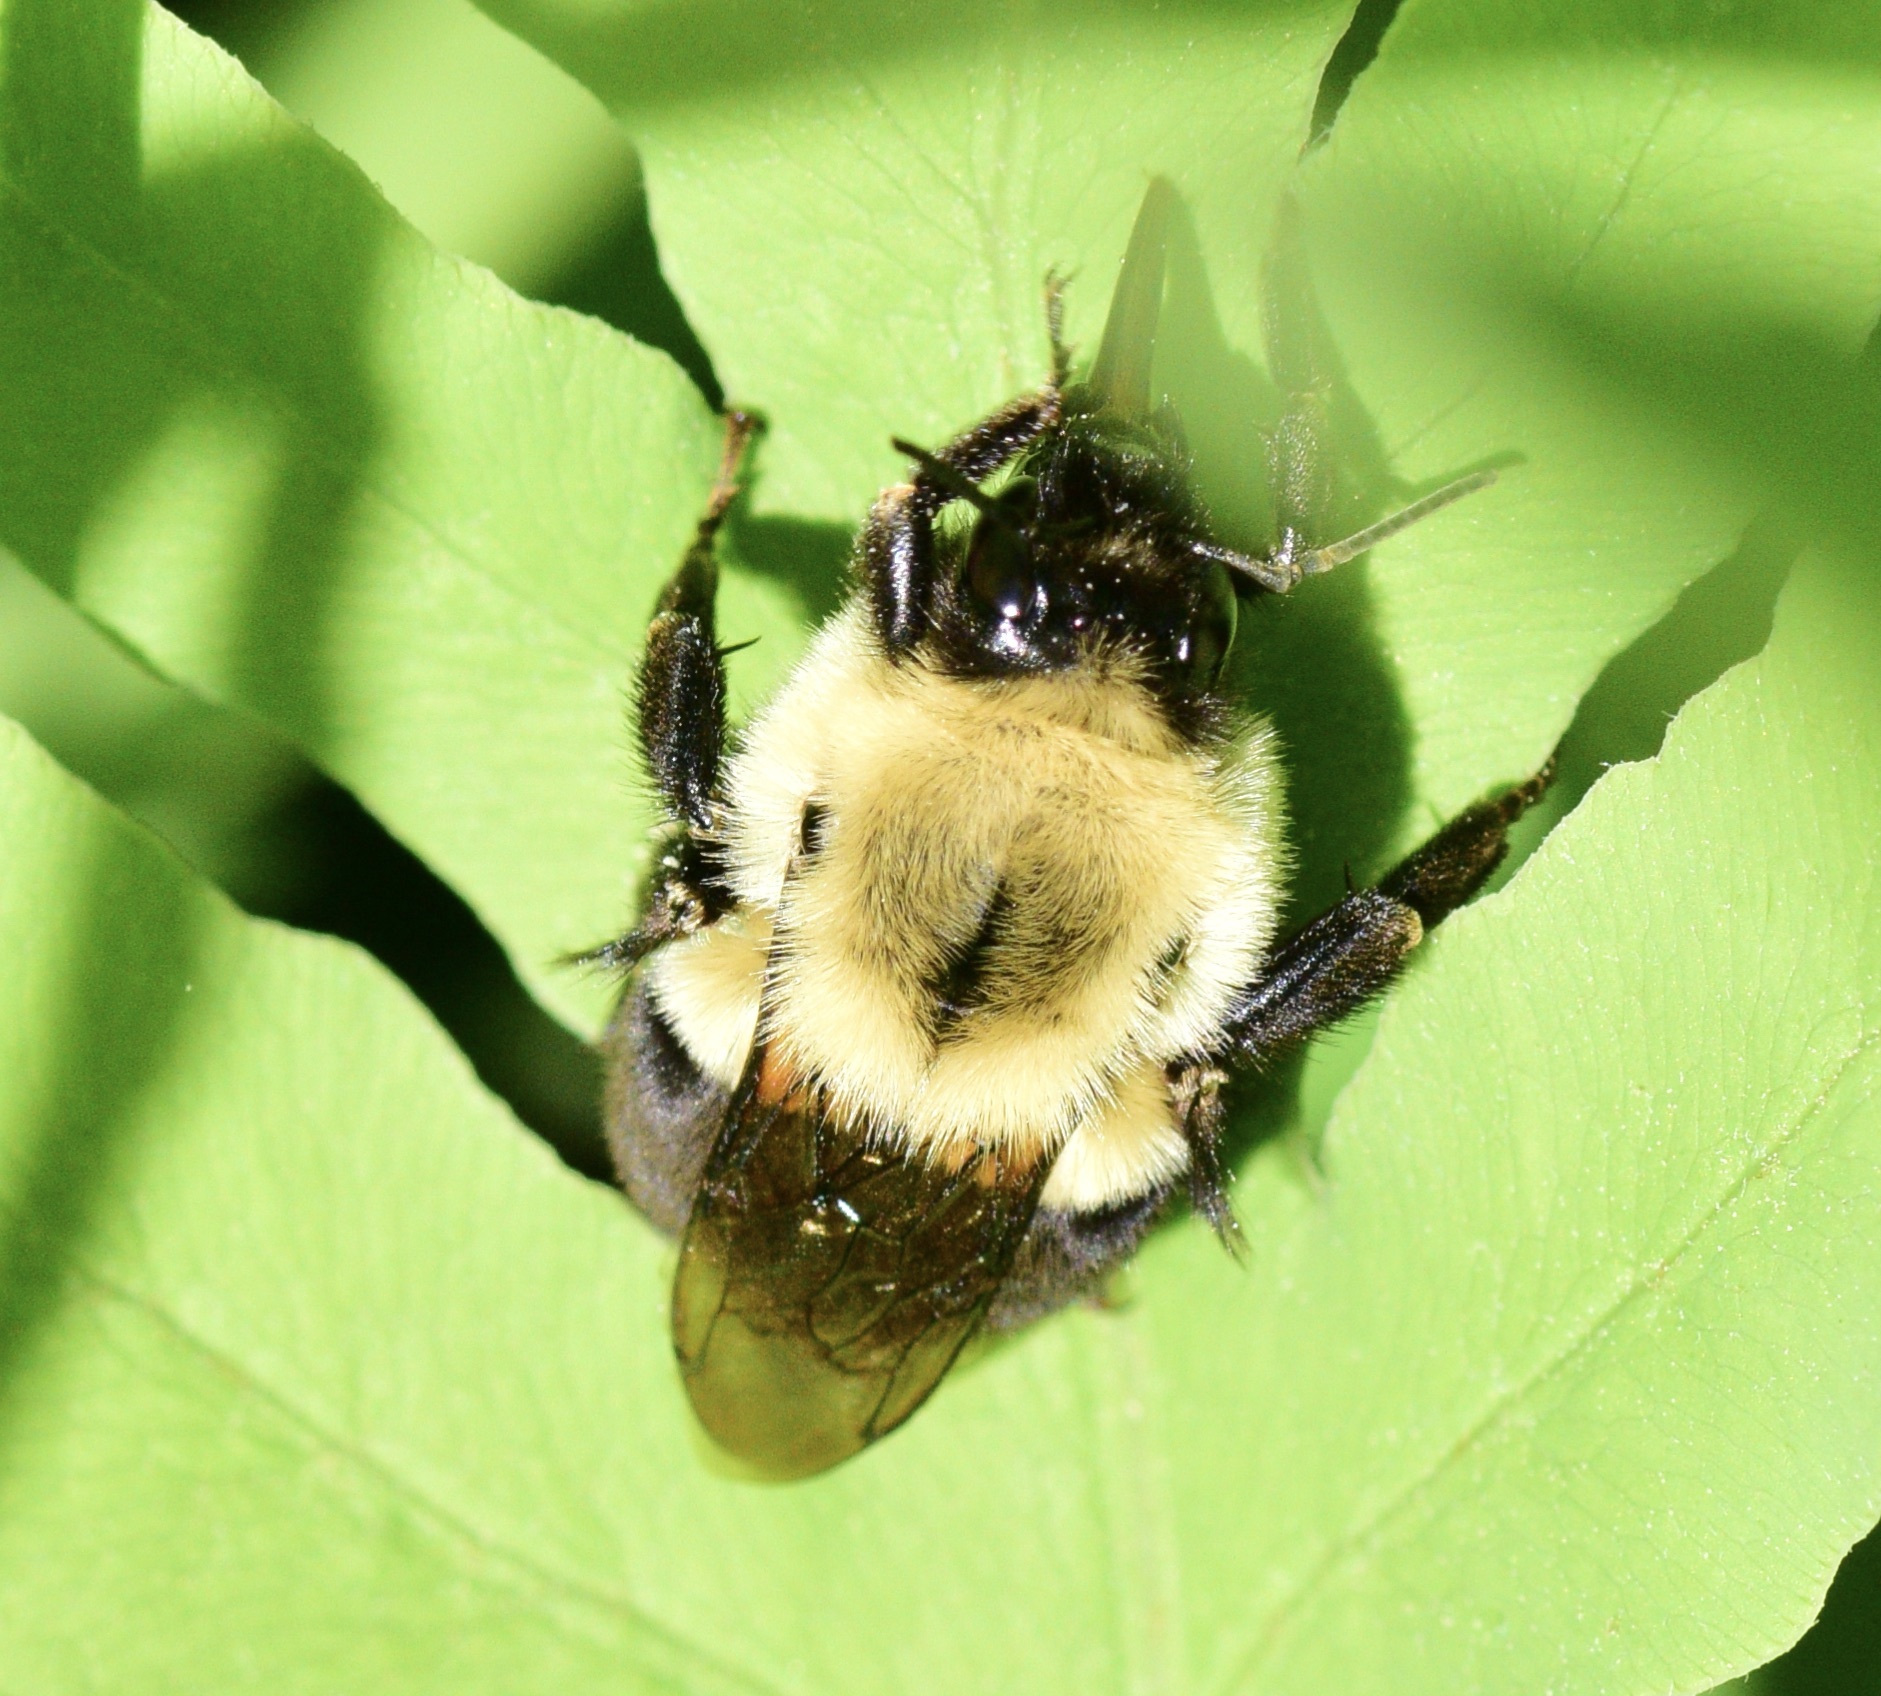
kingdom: Animalia
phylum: Arthropoda
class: Insecta
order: Hymenoptera
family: Apidae
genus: Bombus
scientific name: Bombus impatiens
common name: Common eastern bumble bee
